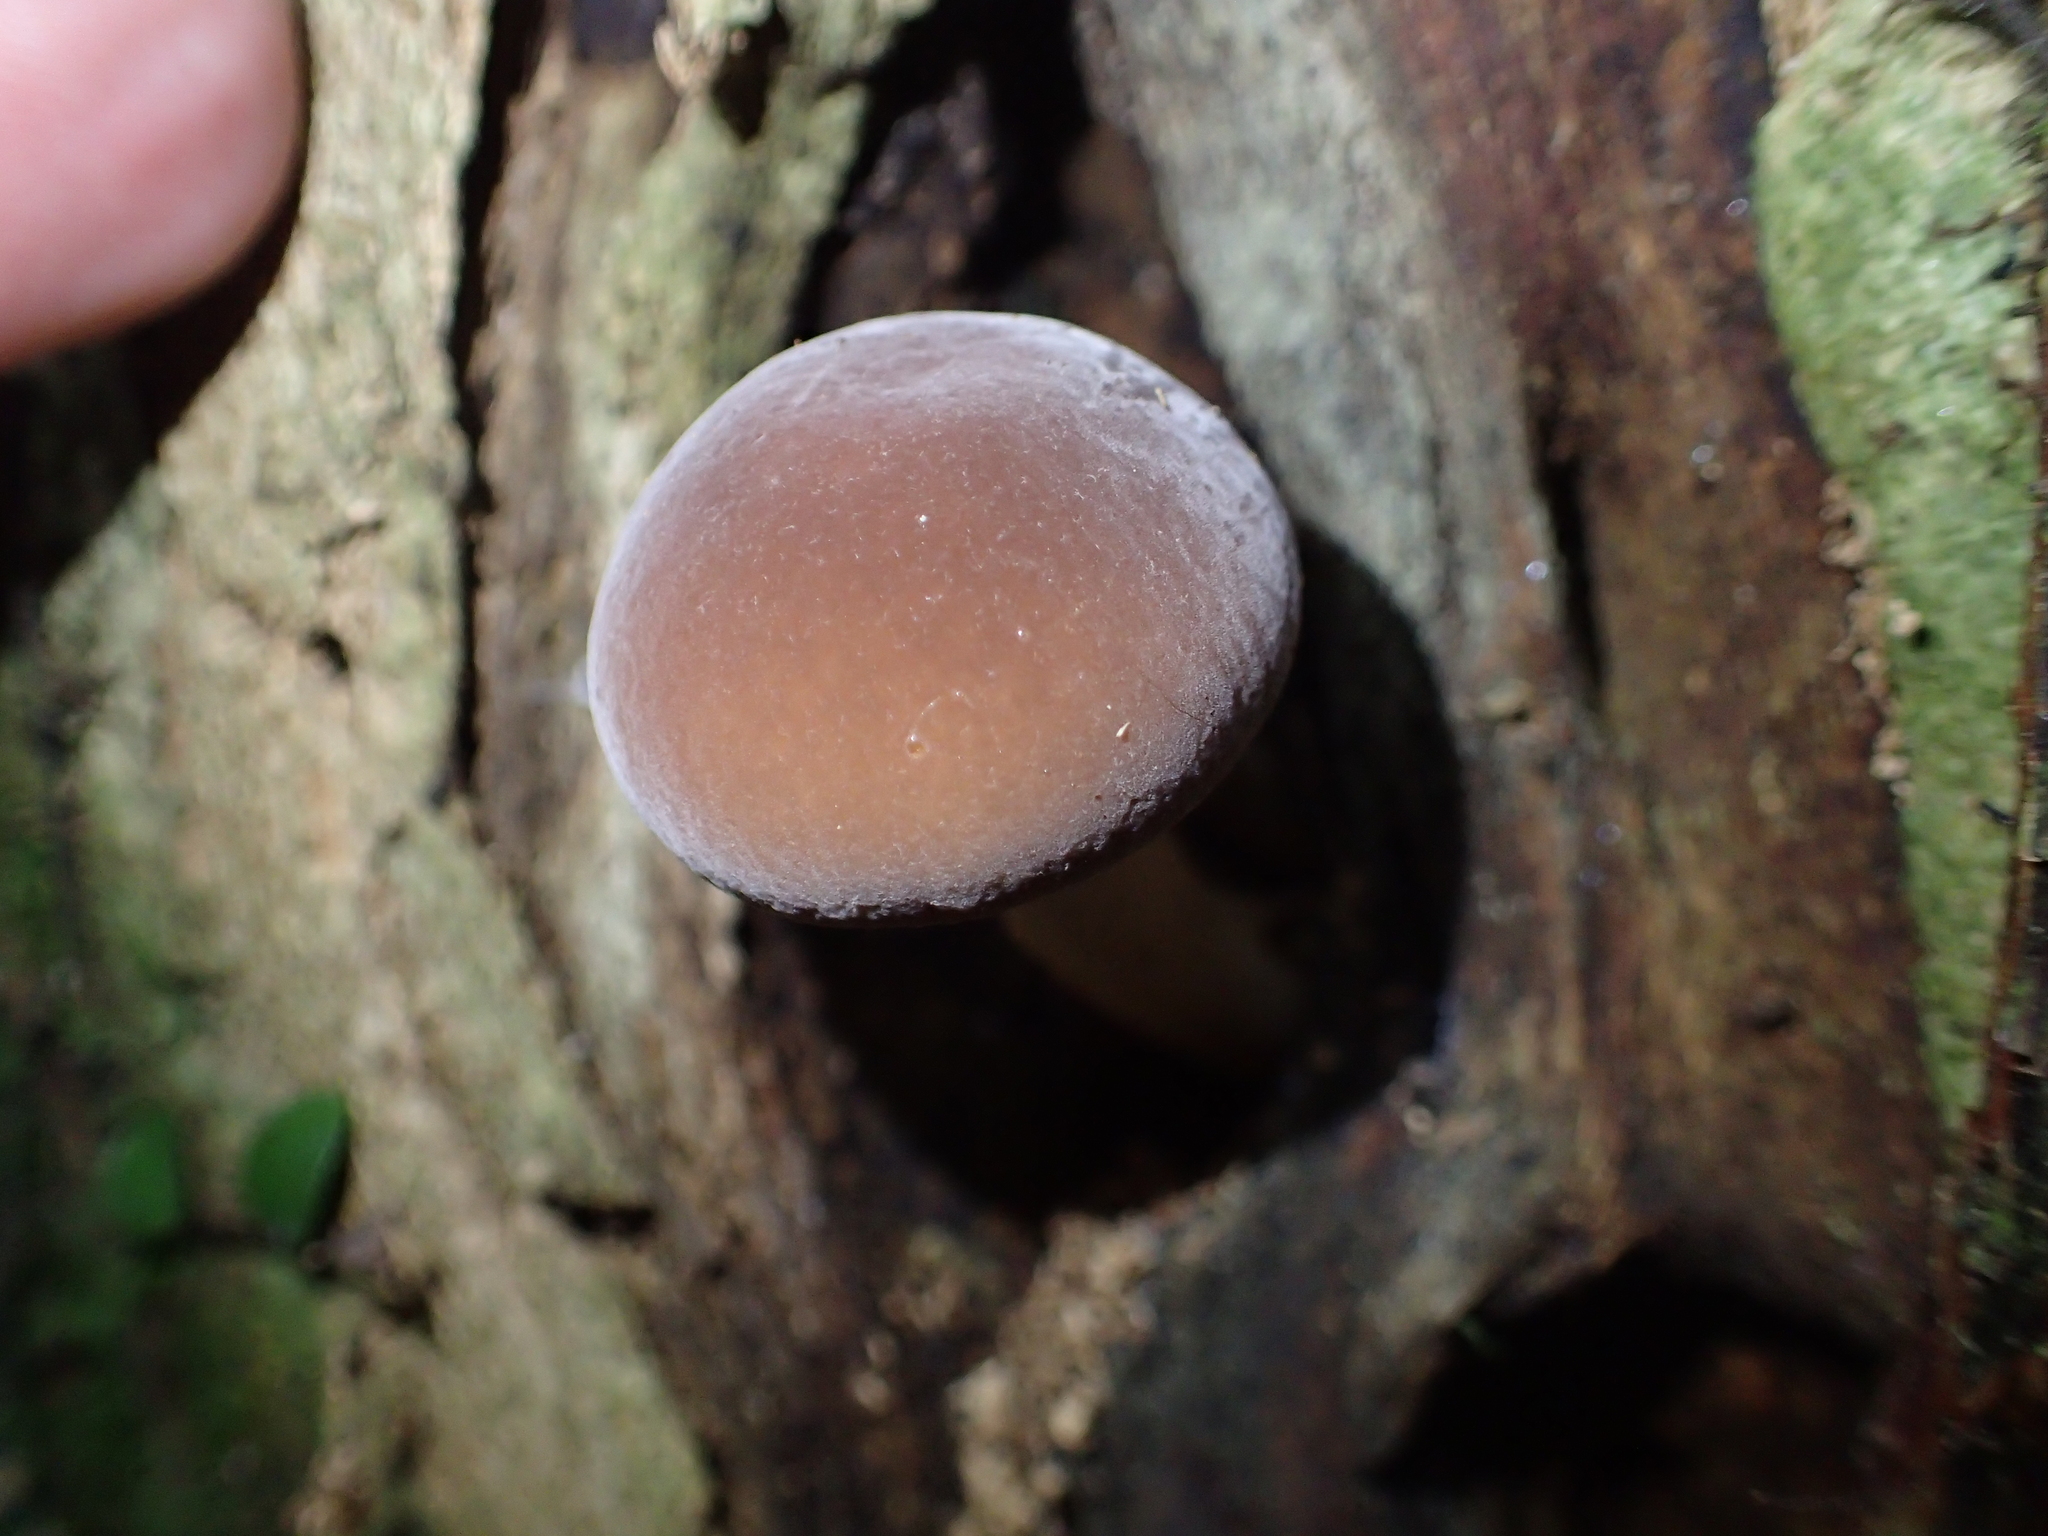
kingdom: Fungi
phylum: Basidiomycota
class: Agaricomycetes
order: Agaricales
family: Tubariaceae
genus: Cyclocybe
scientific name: Cyclocybe parasitica
